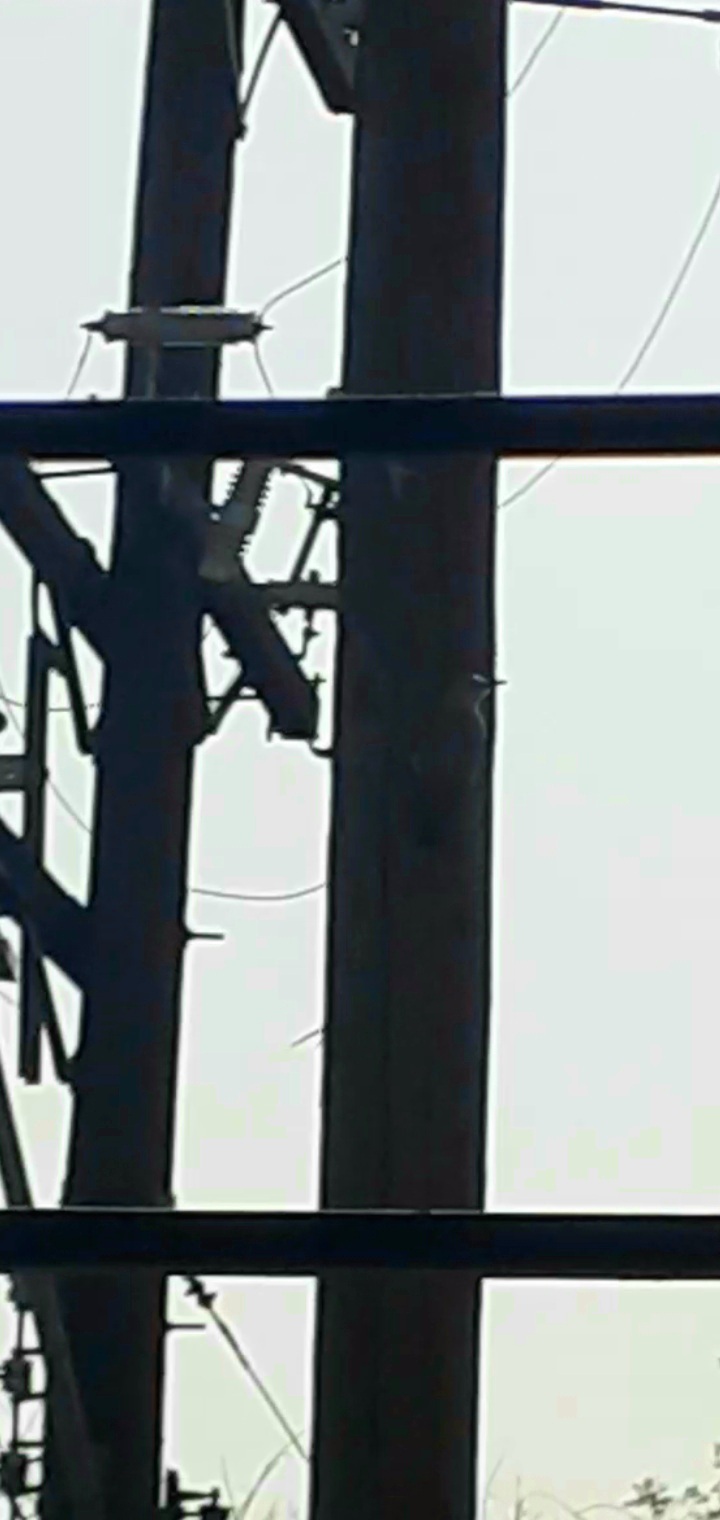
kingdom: Animalia
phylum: Chordata
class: Aves
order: Piciformes
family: Picidae
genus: Melanerpes
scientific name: Melanerpes aurifrons
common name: Golden-fronted woodpecker
